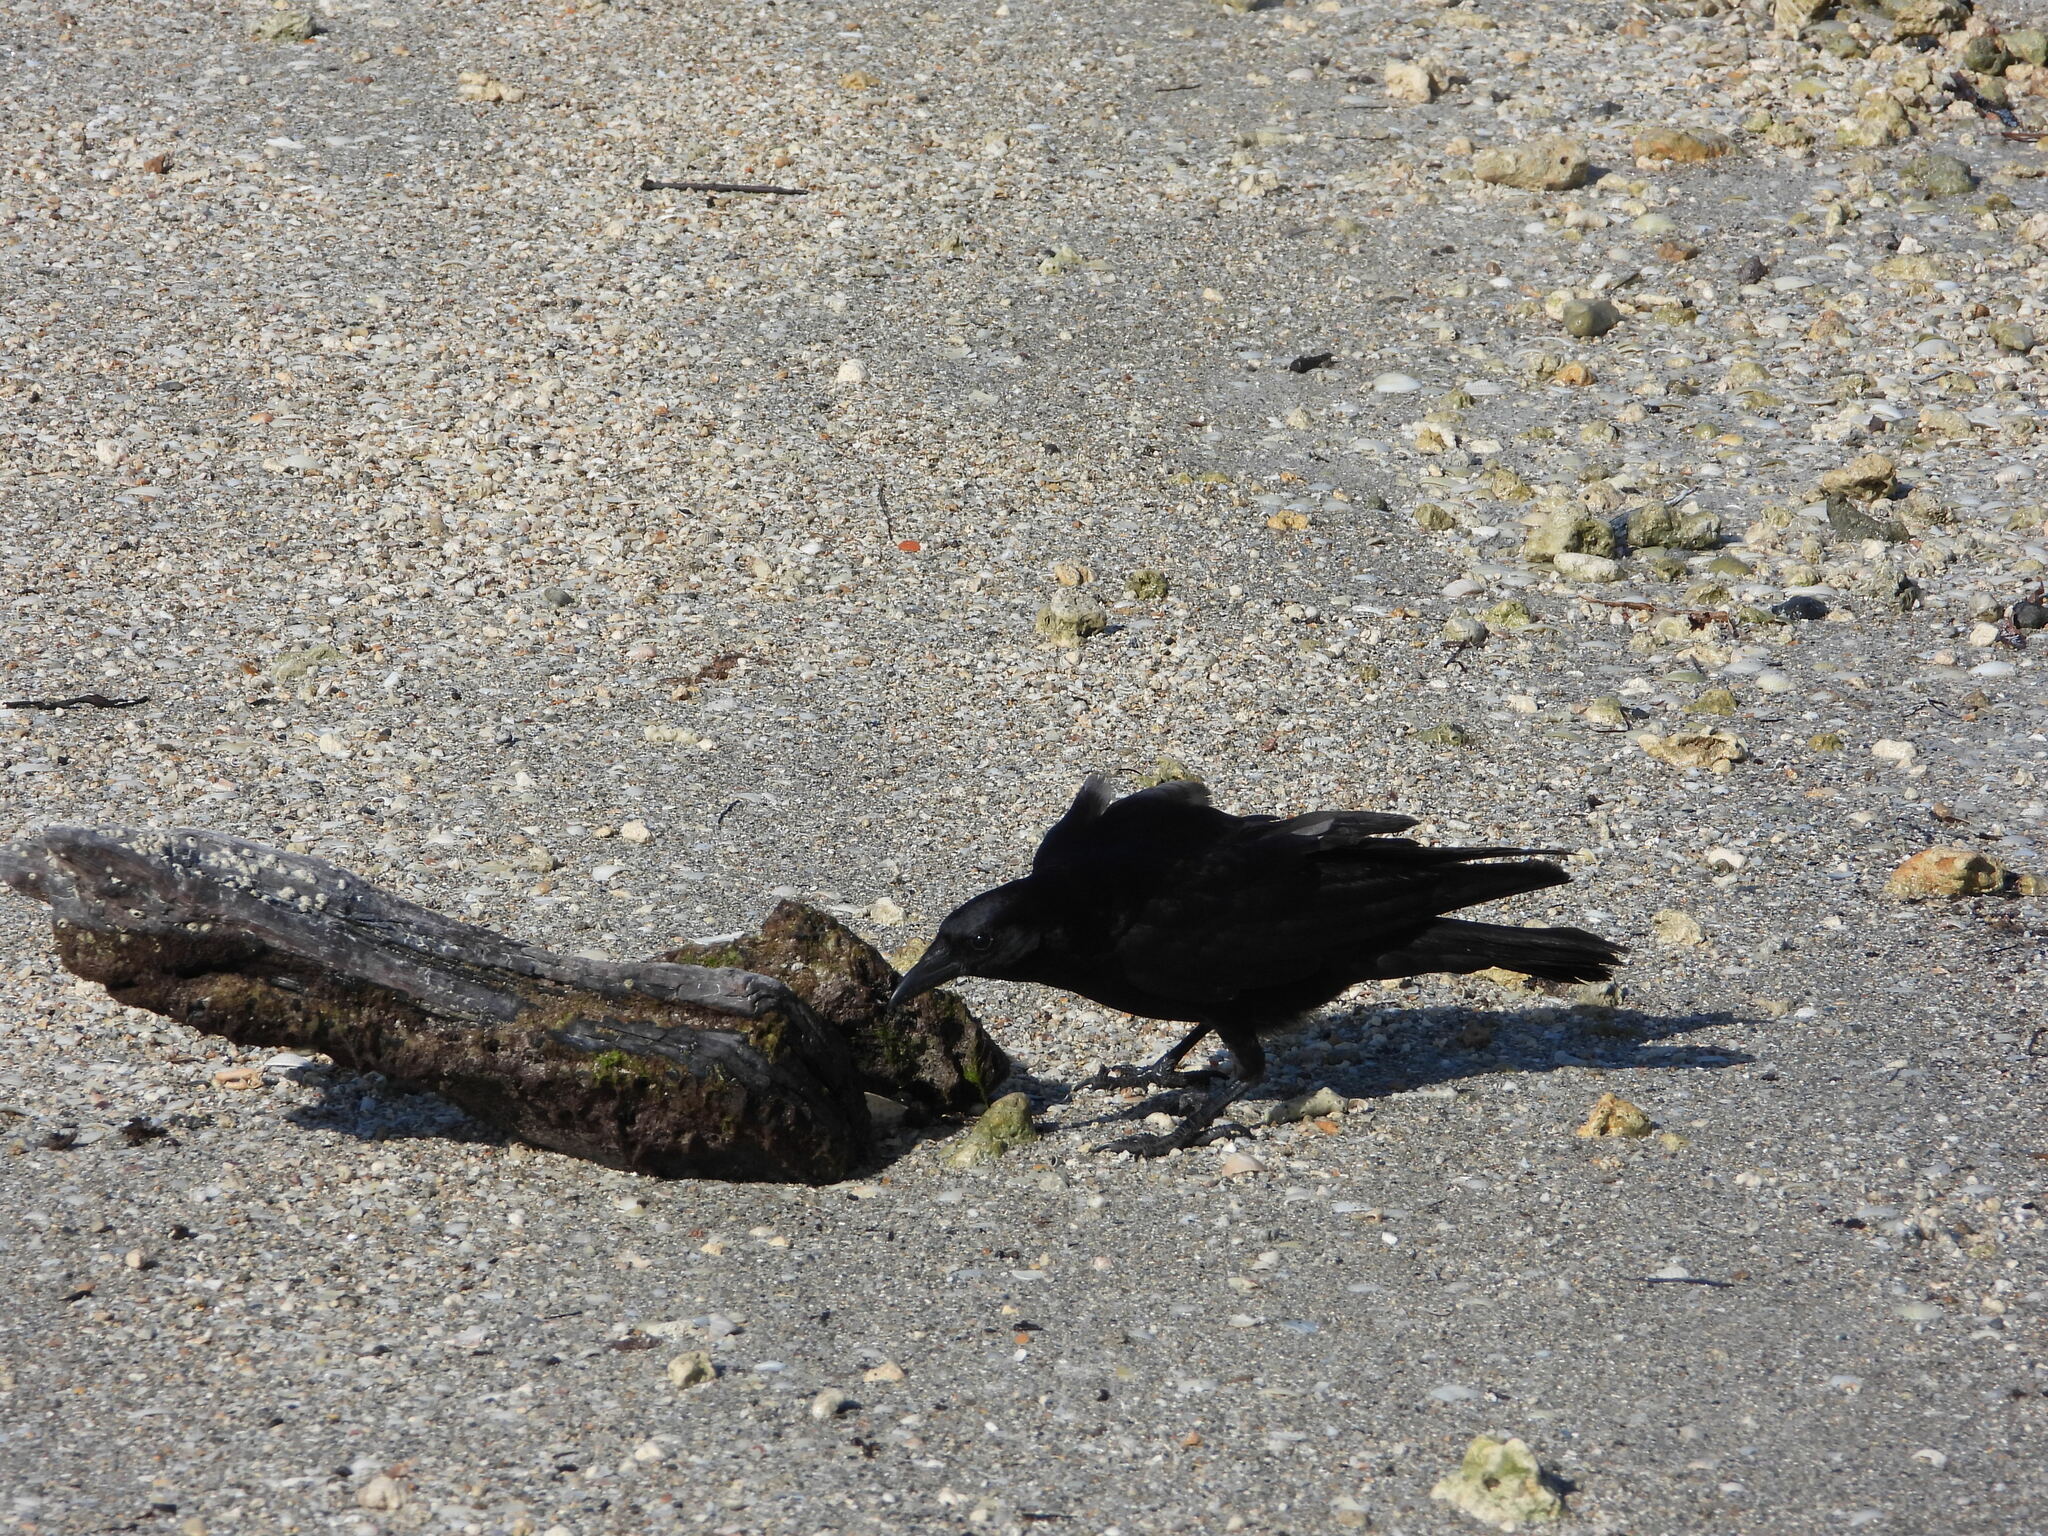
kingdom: Animalia
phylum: Chordata
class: Aves
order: Passeriformes
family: Corvidae
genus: Corvus
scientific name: Corvus ossifragus
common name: Fish crow
